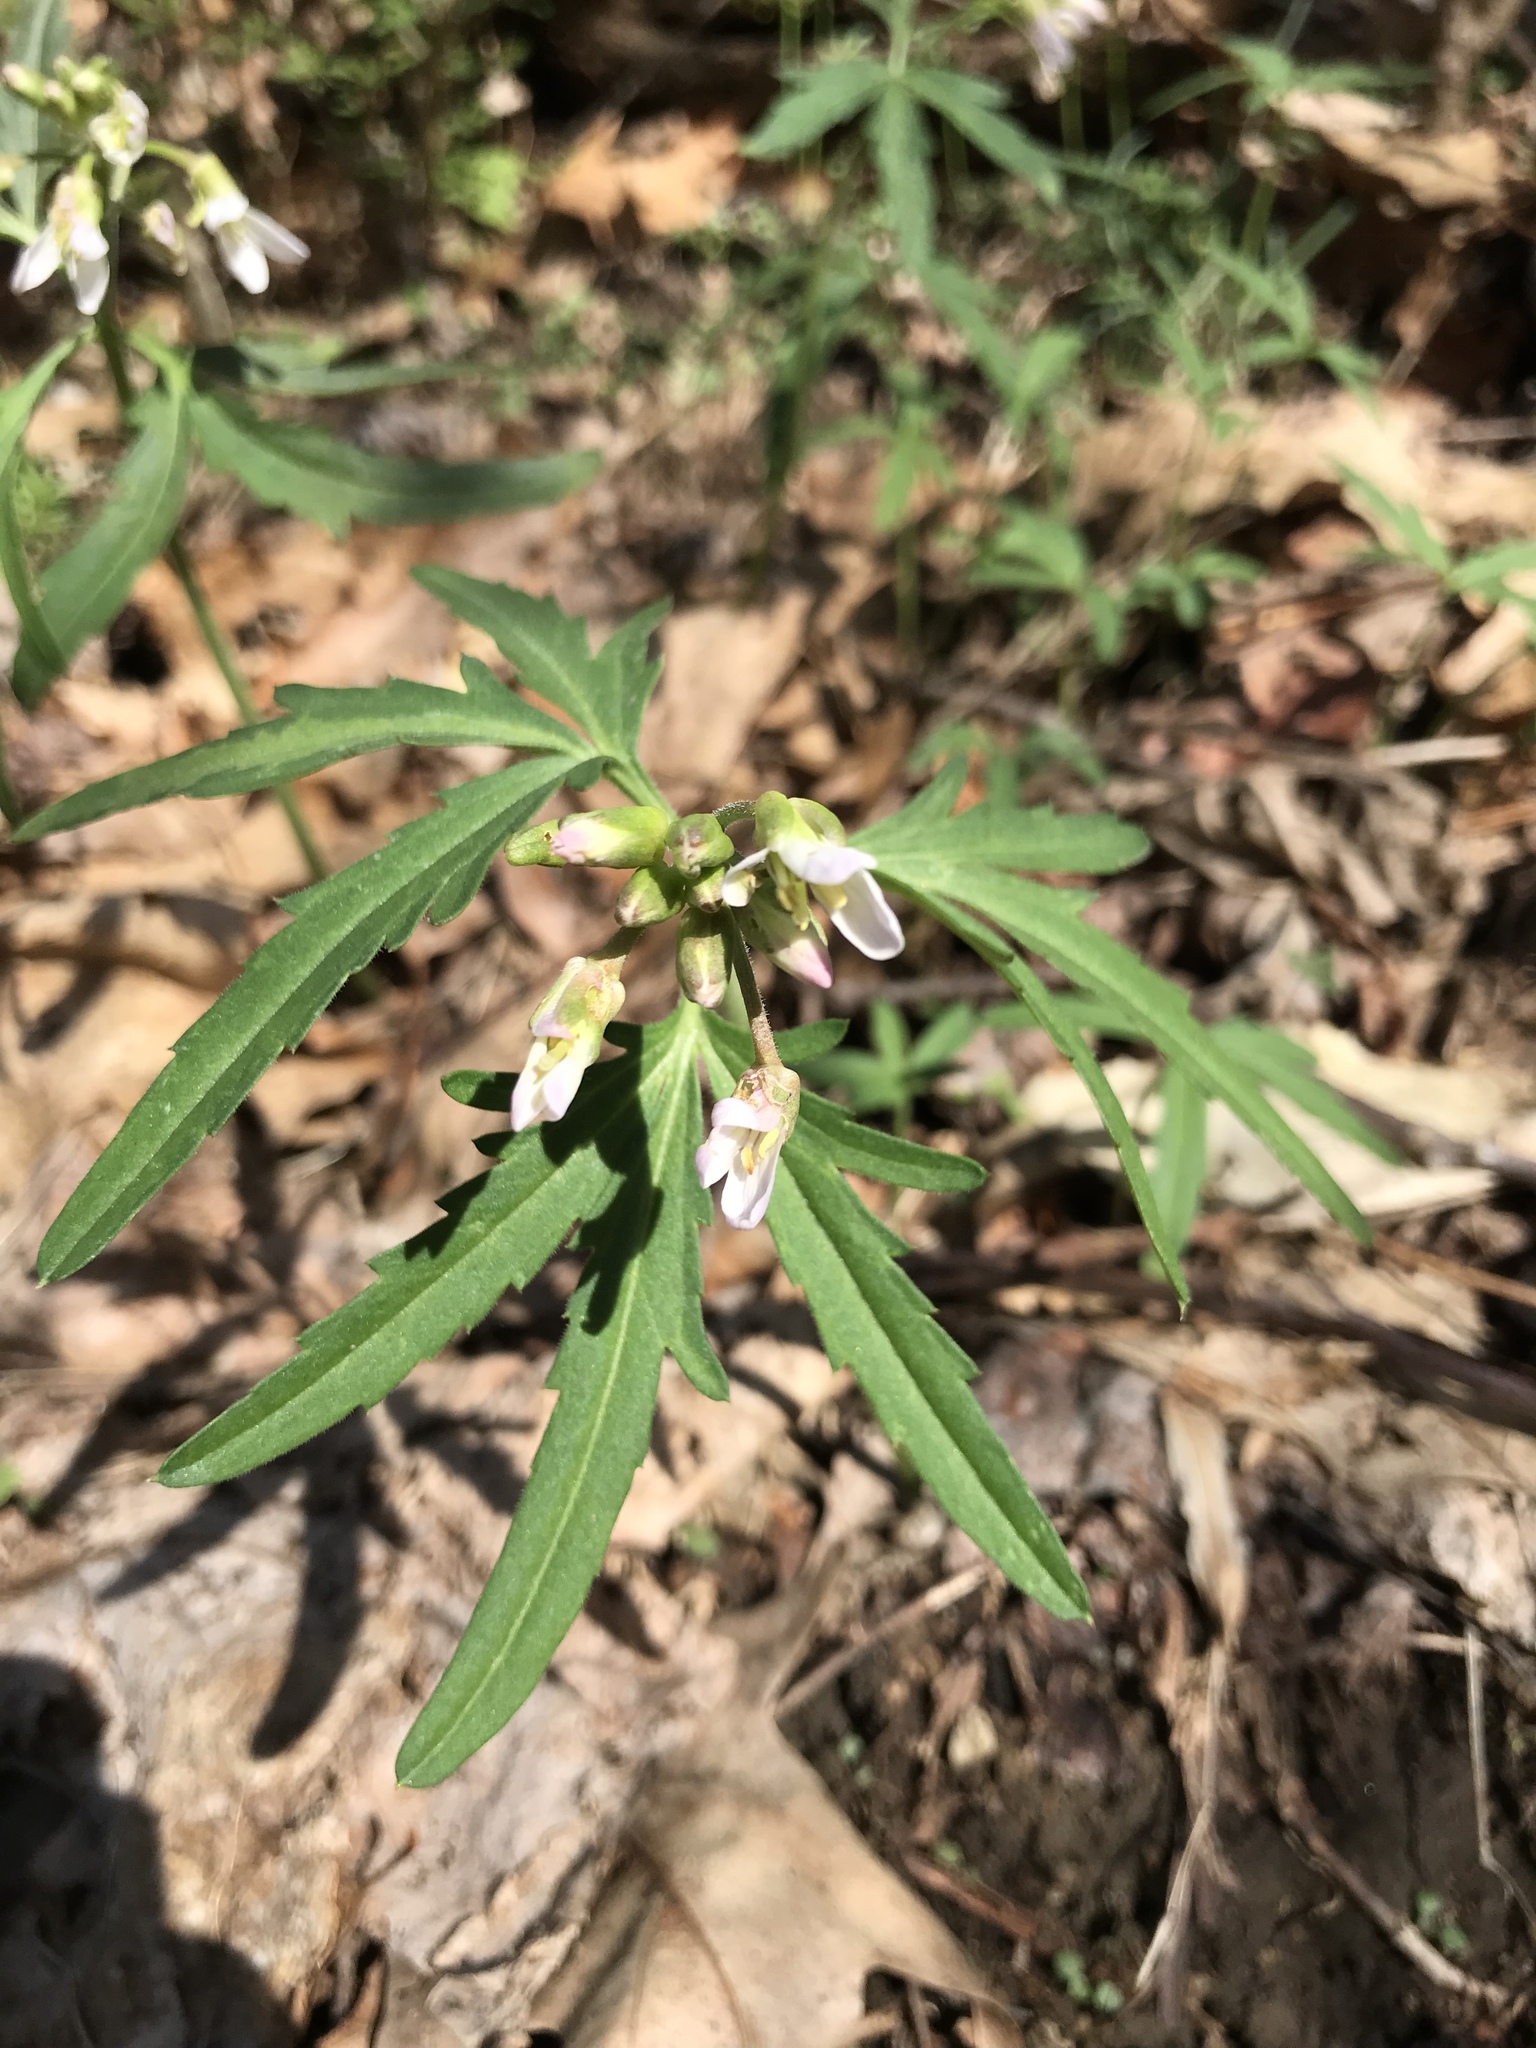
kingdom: Plantae
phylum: Tracheophyta
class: Magnoliopsida
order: Brassicales
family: Brassicaceae
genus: Cardamine
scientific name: Cardamine concatenata
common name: Cut-leaf toothcup
